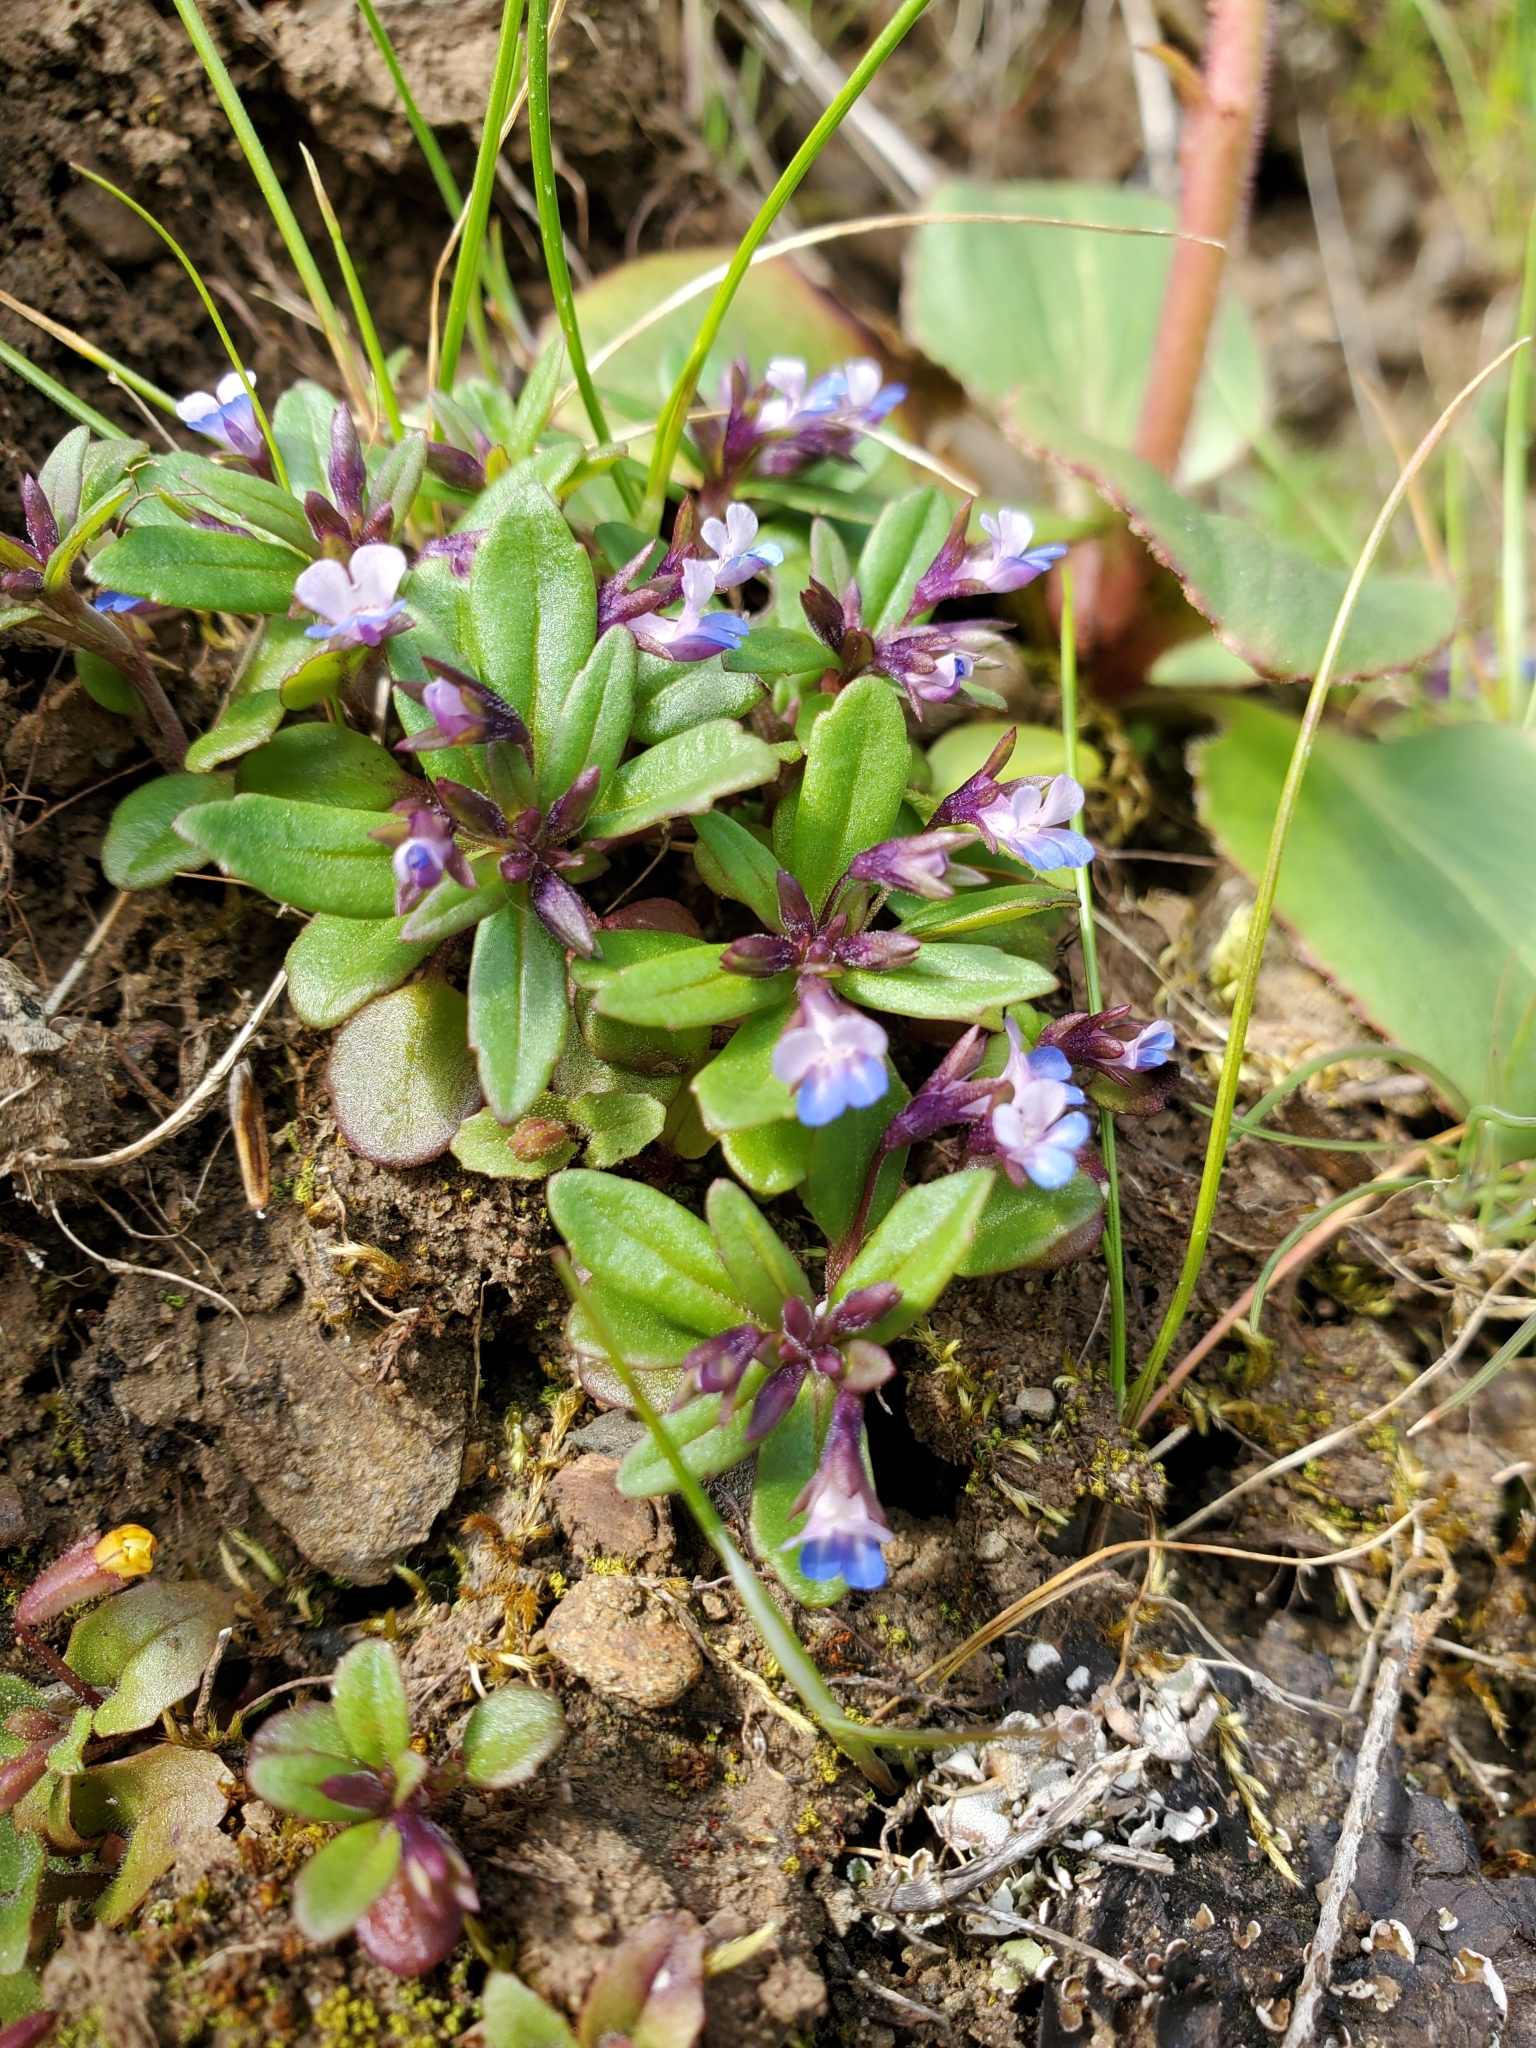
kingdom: Plantae
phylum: Tracheophyta
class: Magnoliopsida
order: Lamiales
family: Plantaginaceae
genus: Collinsia
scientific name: Collinsia parviflora
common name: Blue-lips
